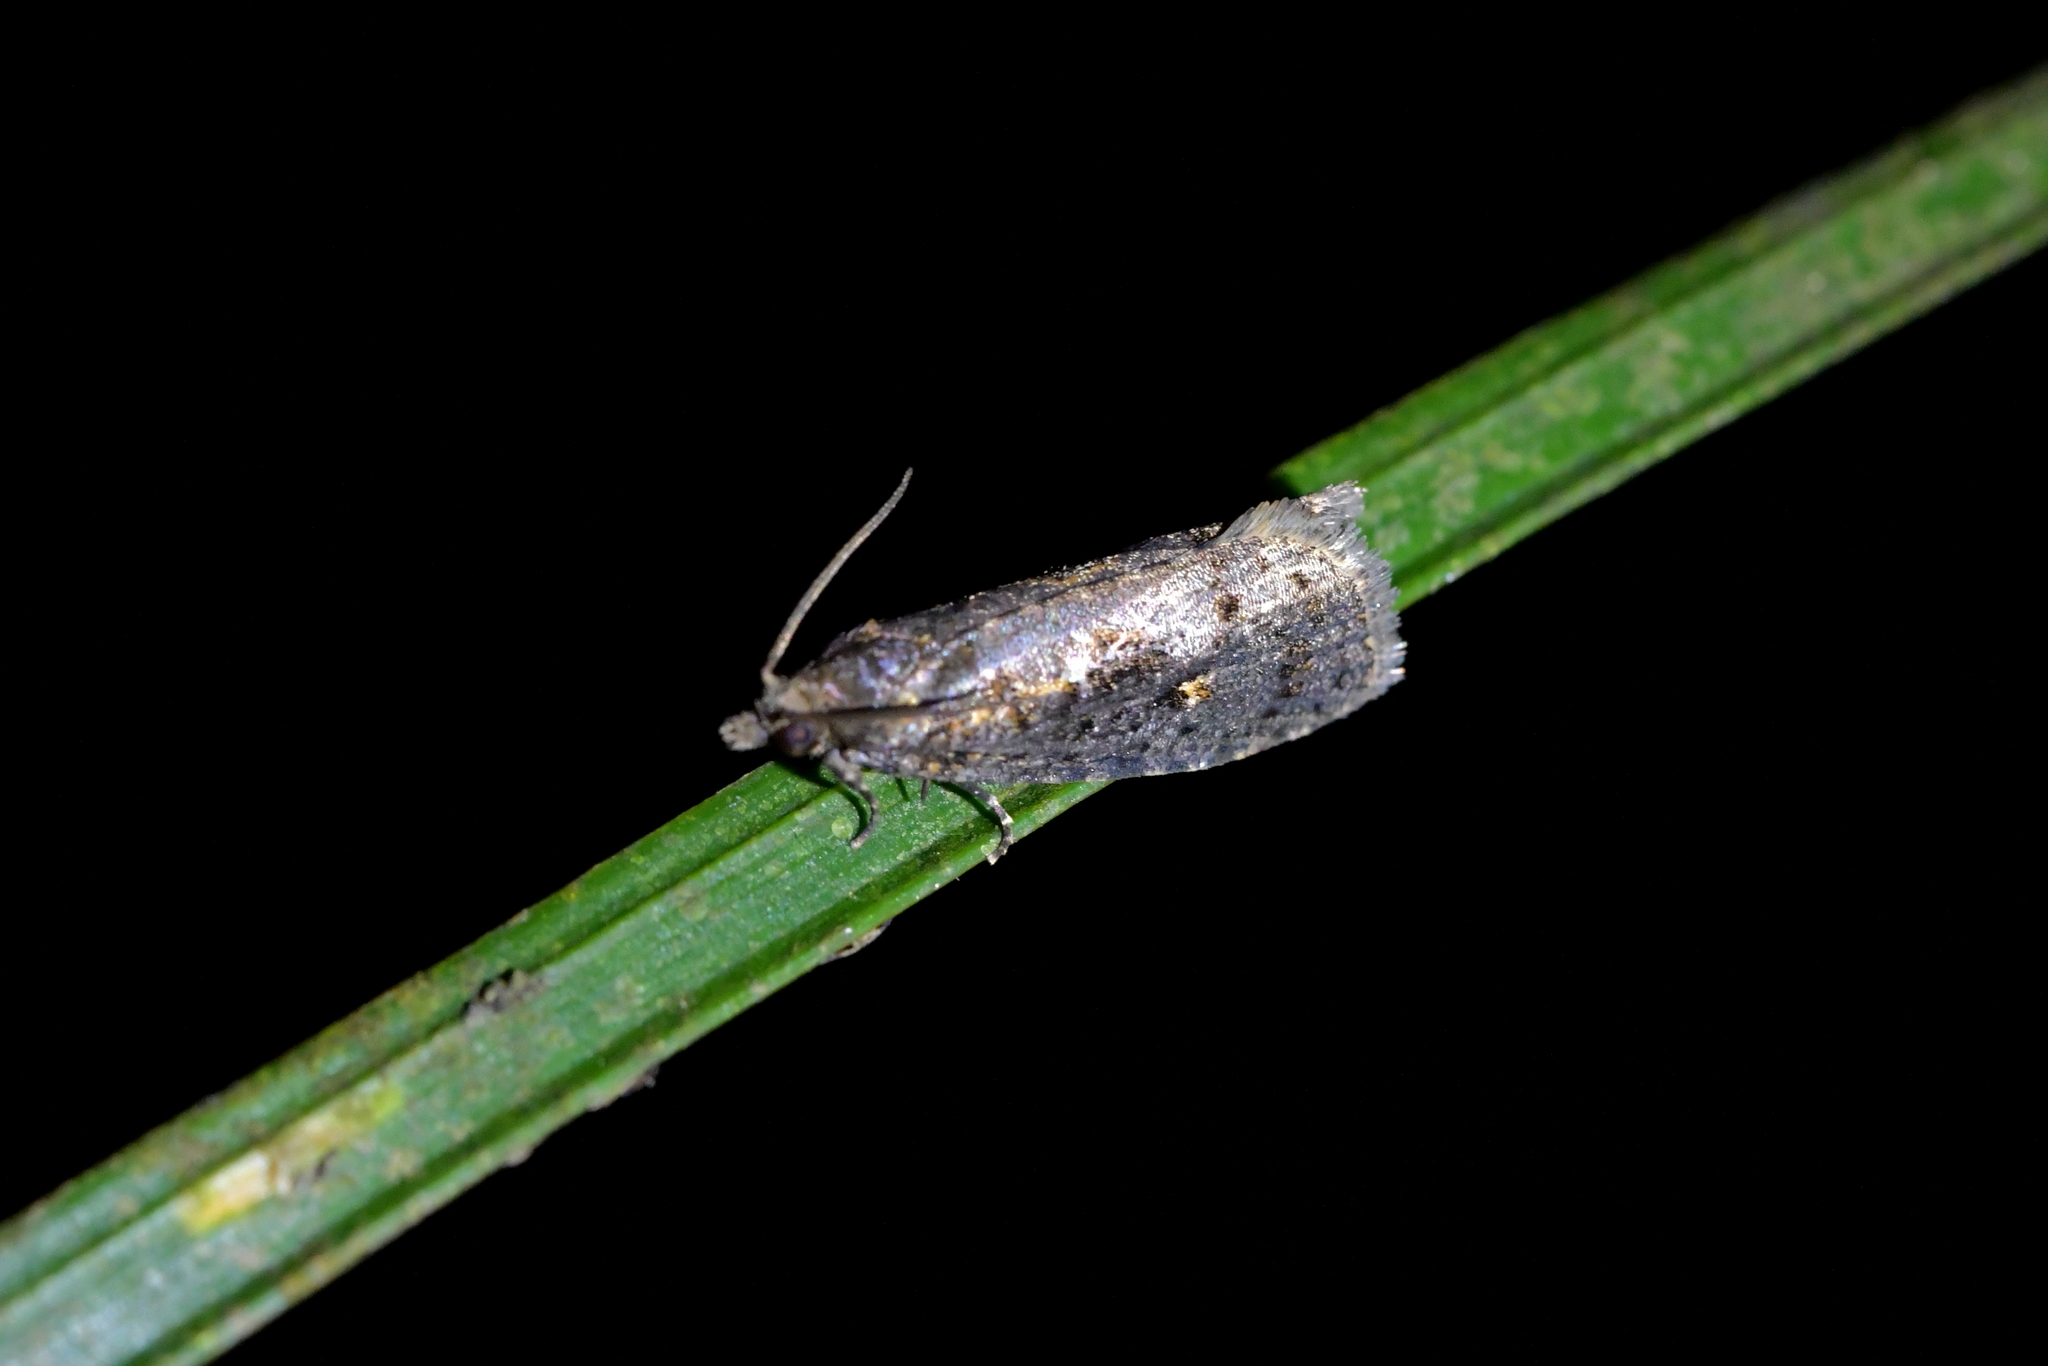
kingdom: Animalia
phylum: Arthropoda
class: Insecta
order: Lepidoptera
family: Tortricidae
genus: Cryptaspasma
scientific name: Cryptaspasma querula
